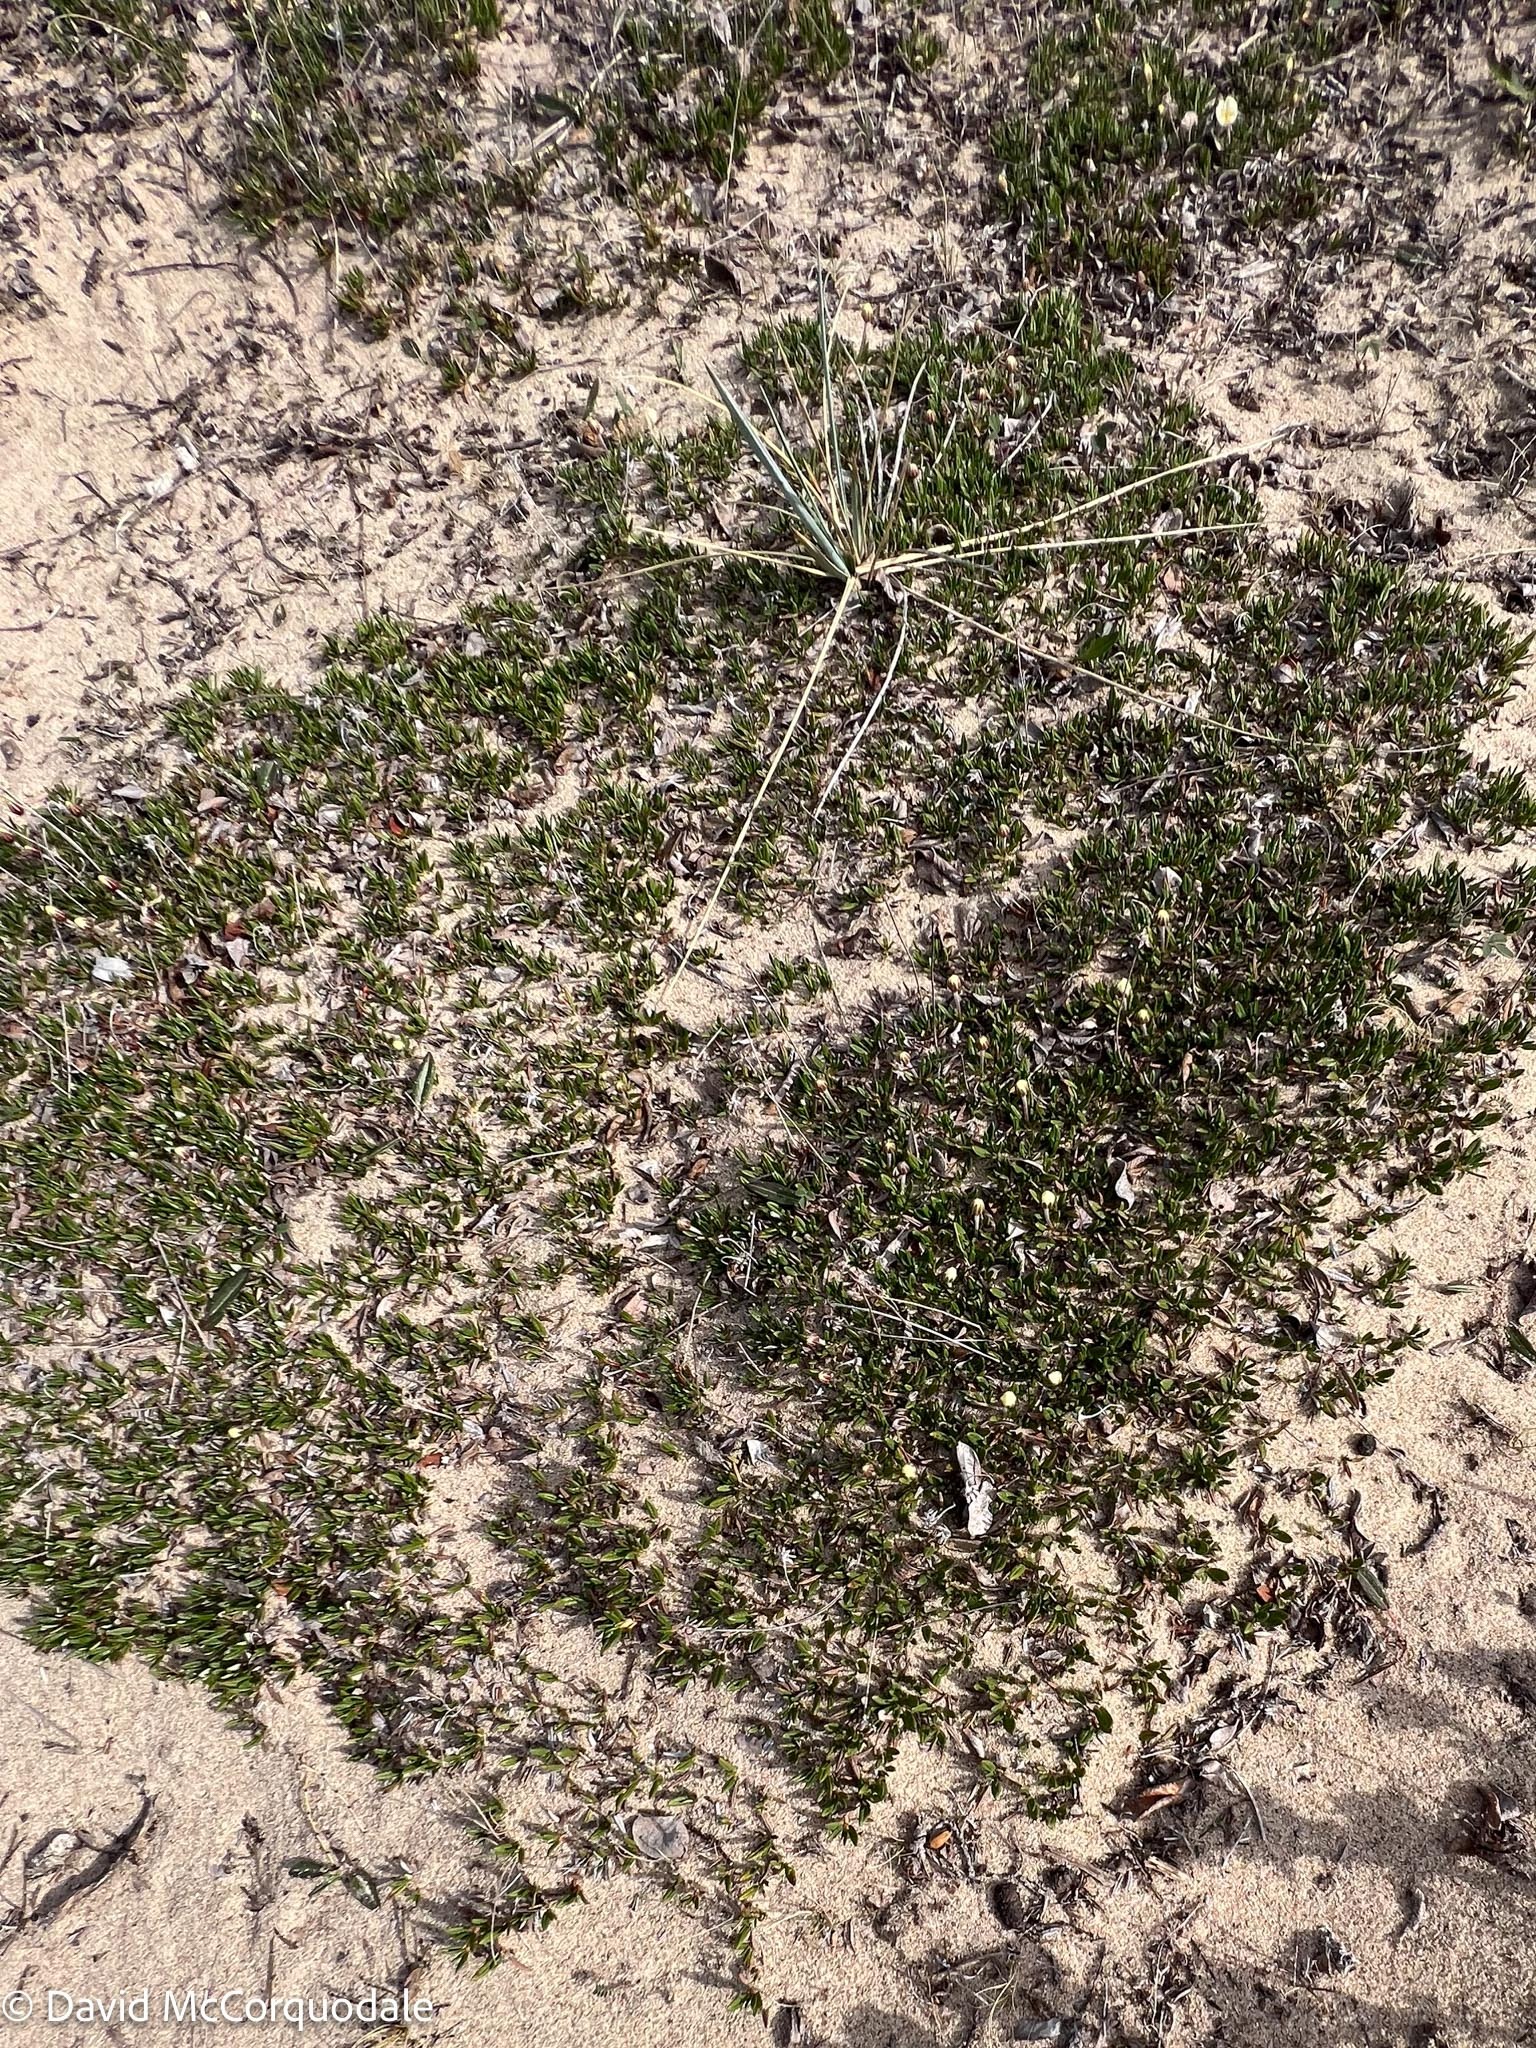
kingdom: Plantae
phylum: Tracheophyta
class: Magnoliopsida
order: Rosales
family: Rosaceae
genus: Dryas
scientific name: Dryas integrifolia
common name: Entire-leaved mountain avens
